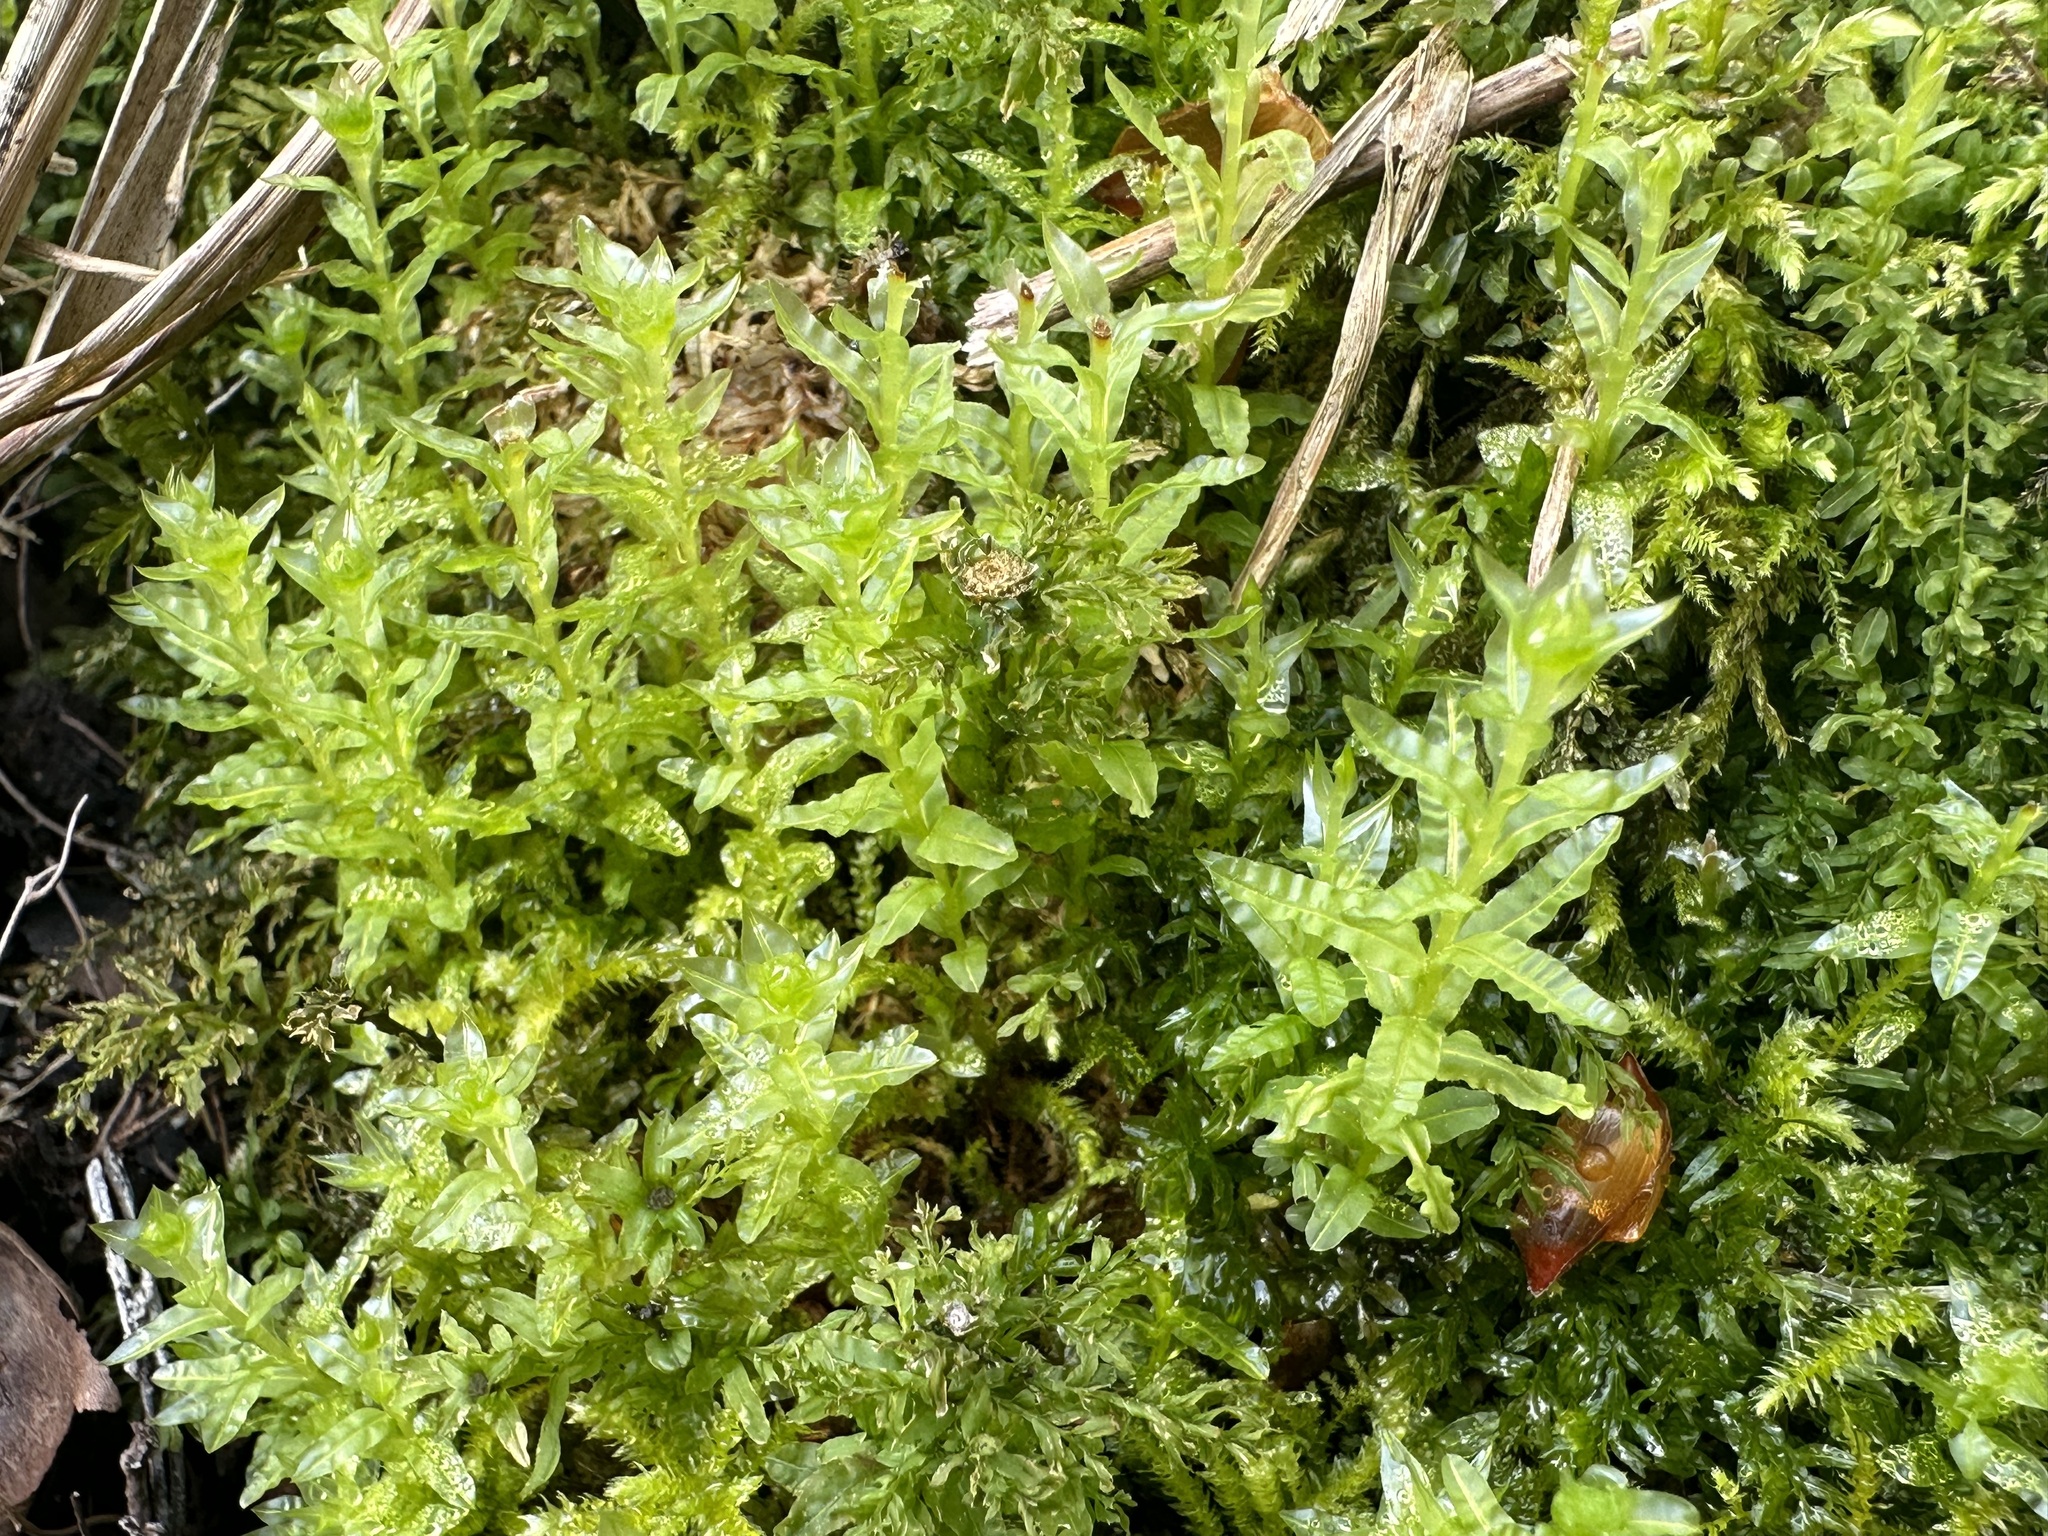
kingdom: Plantae
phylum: Bryophyta
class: Bryopsida
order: Bryales
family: Mniaceae
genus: Plagiomnium
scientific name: Plagiomnium undulatum
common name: Hart's-tongue thyme-moss
